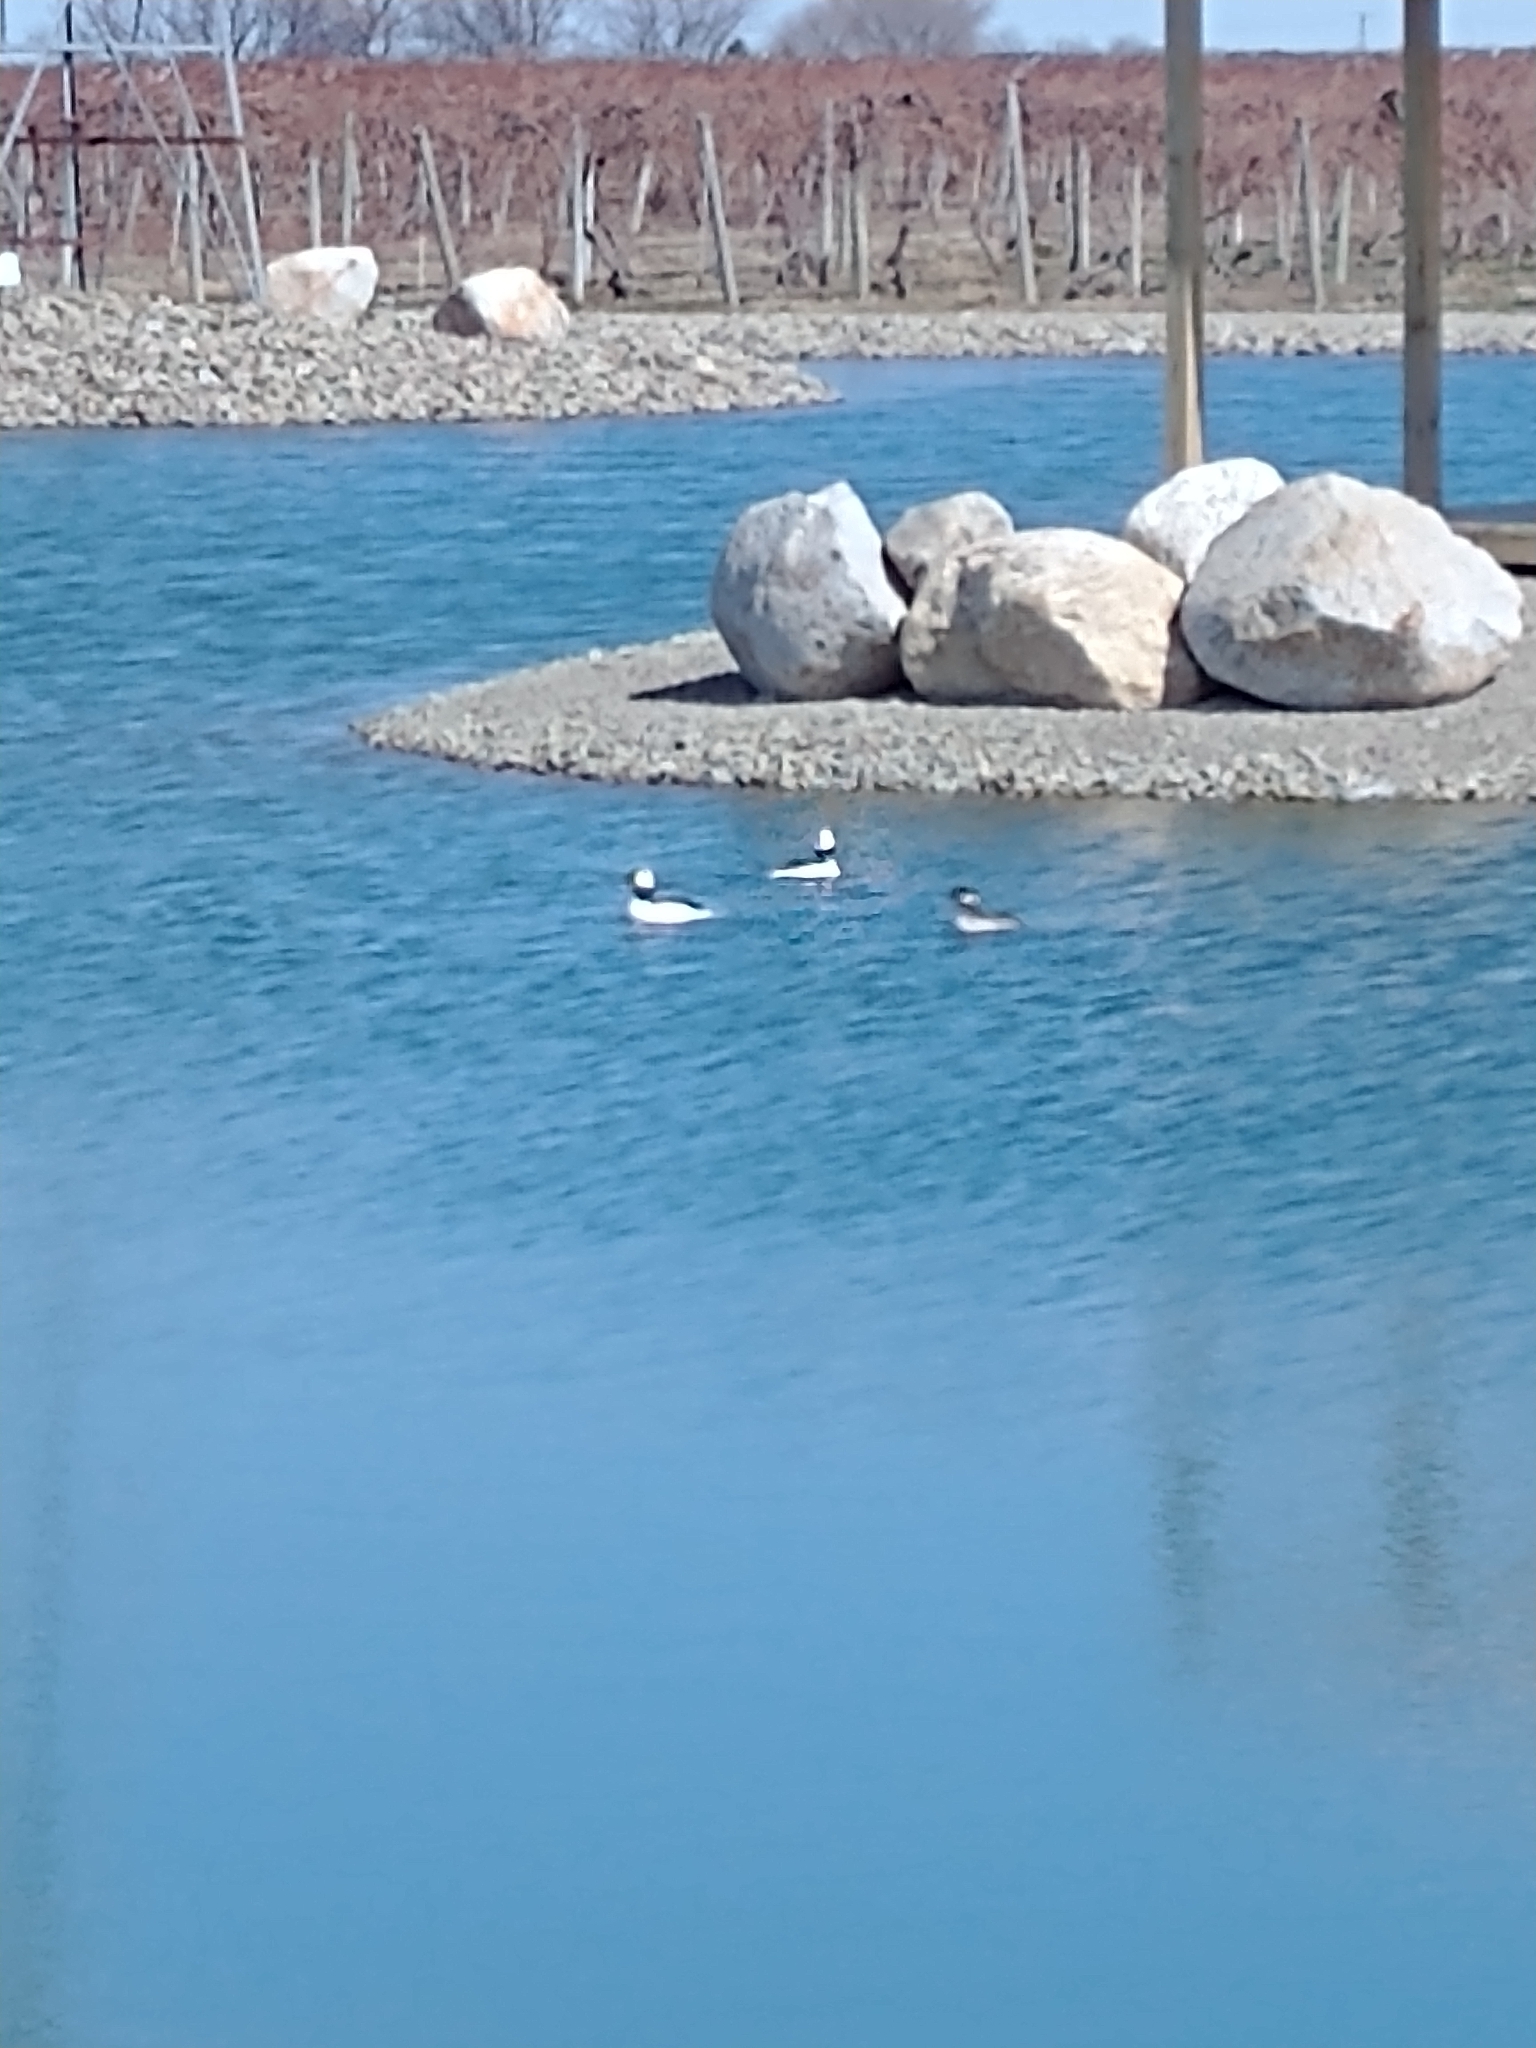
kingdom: Animalia
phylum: Chordata
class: Aves
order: Anseriformes
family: Anatidae
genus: Bucephala
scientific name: Bucephala albeola
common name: Bufflehead
